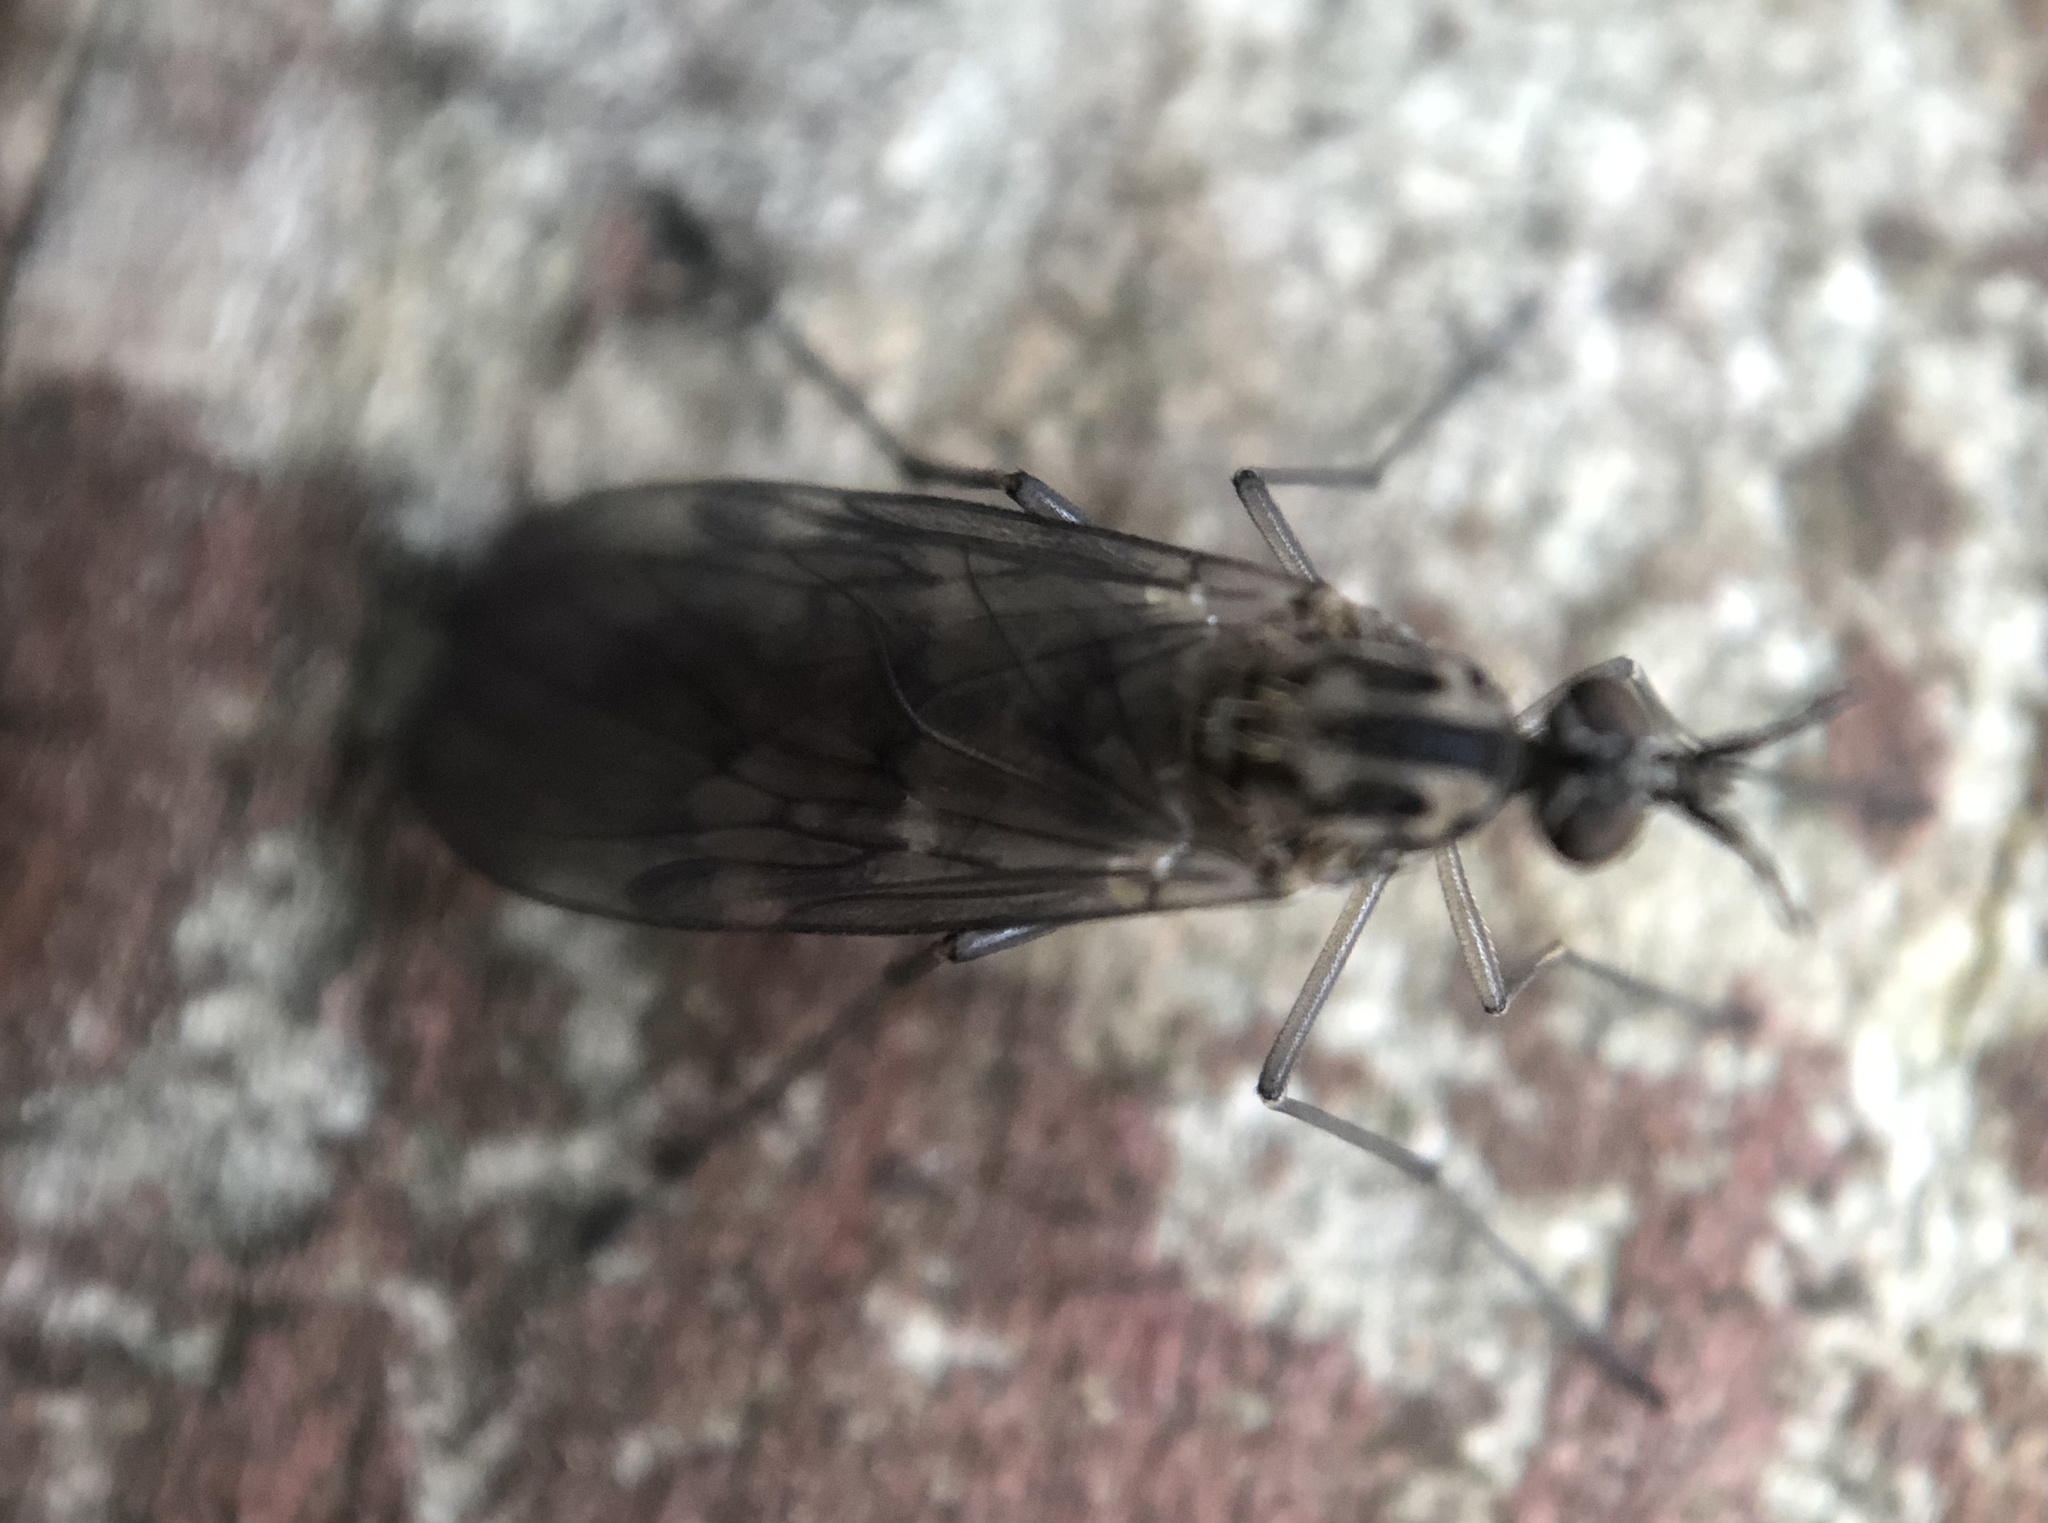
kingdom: Animalia
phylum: Arthropoda
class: Insecta
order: Diptera
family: Anisopodidae
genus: Sylvicola
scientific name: Sylvicola notialis
